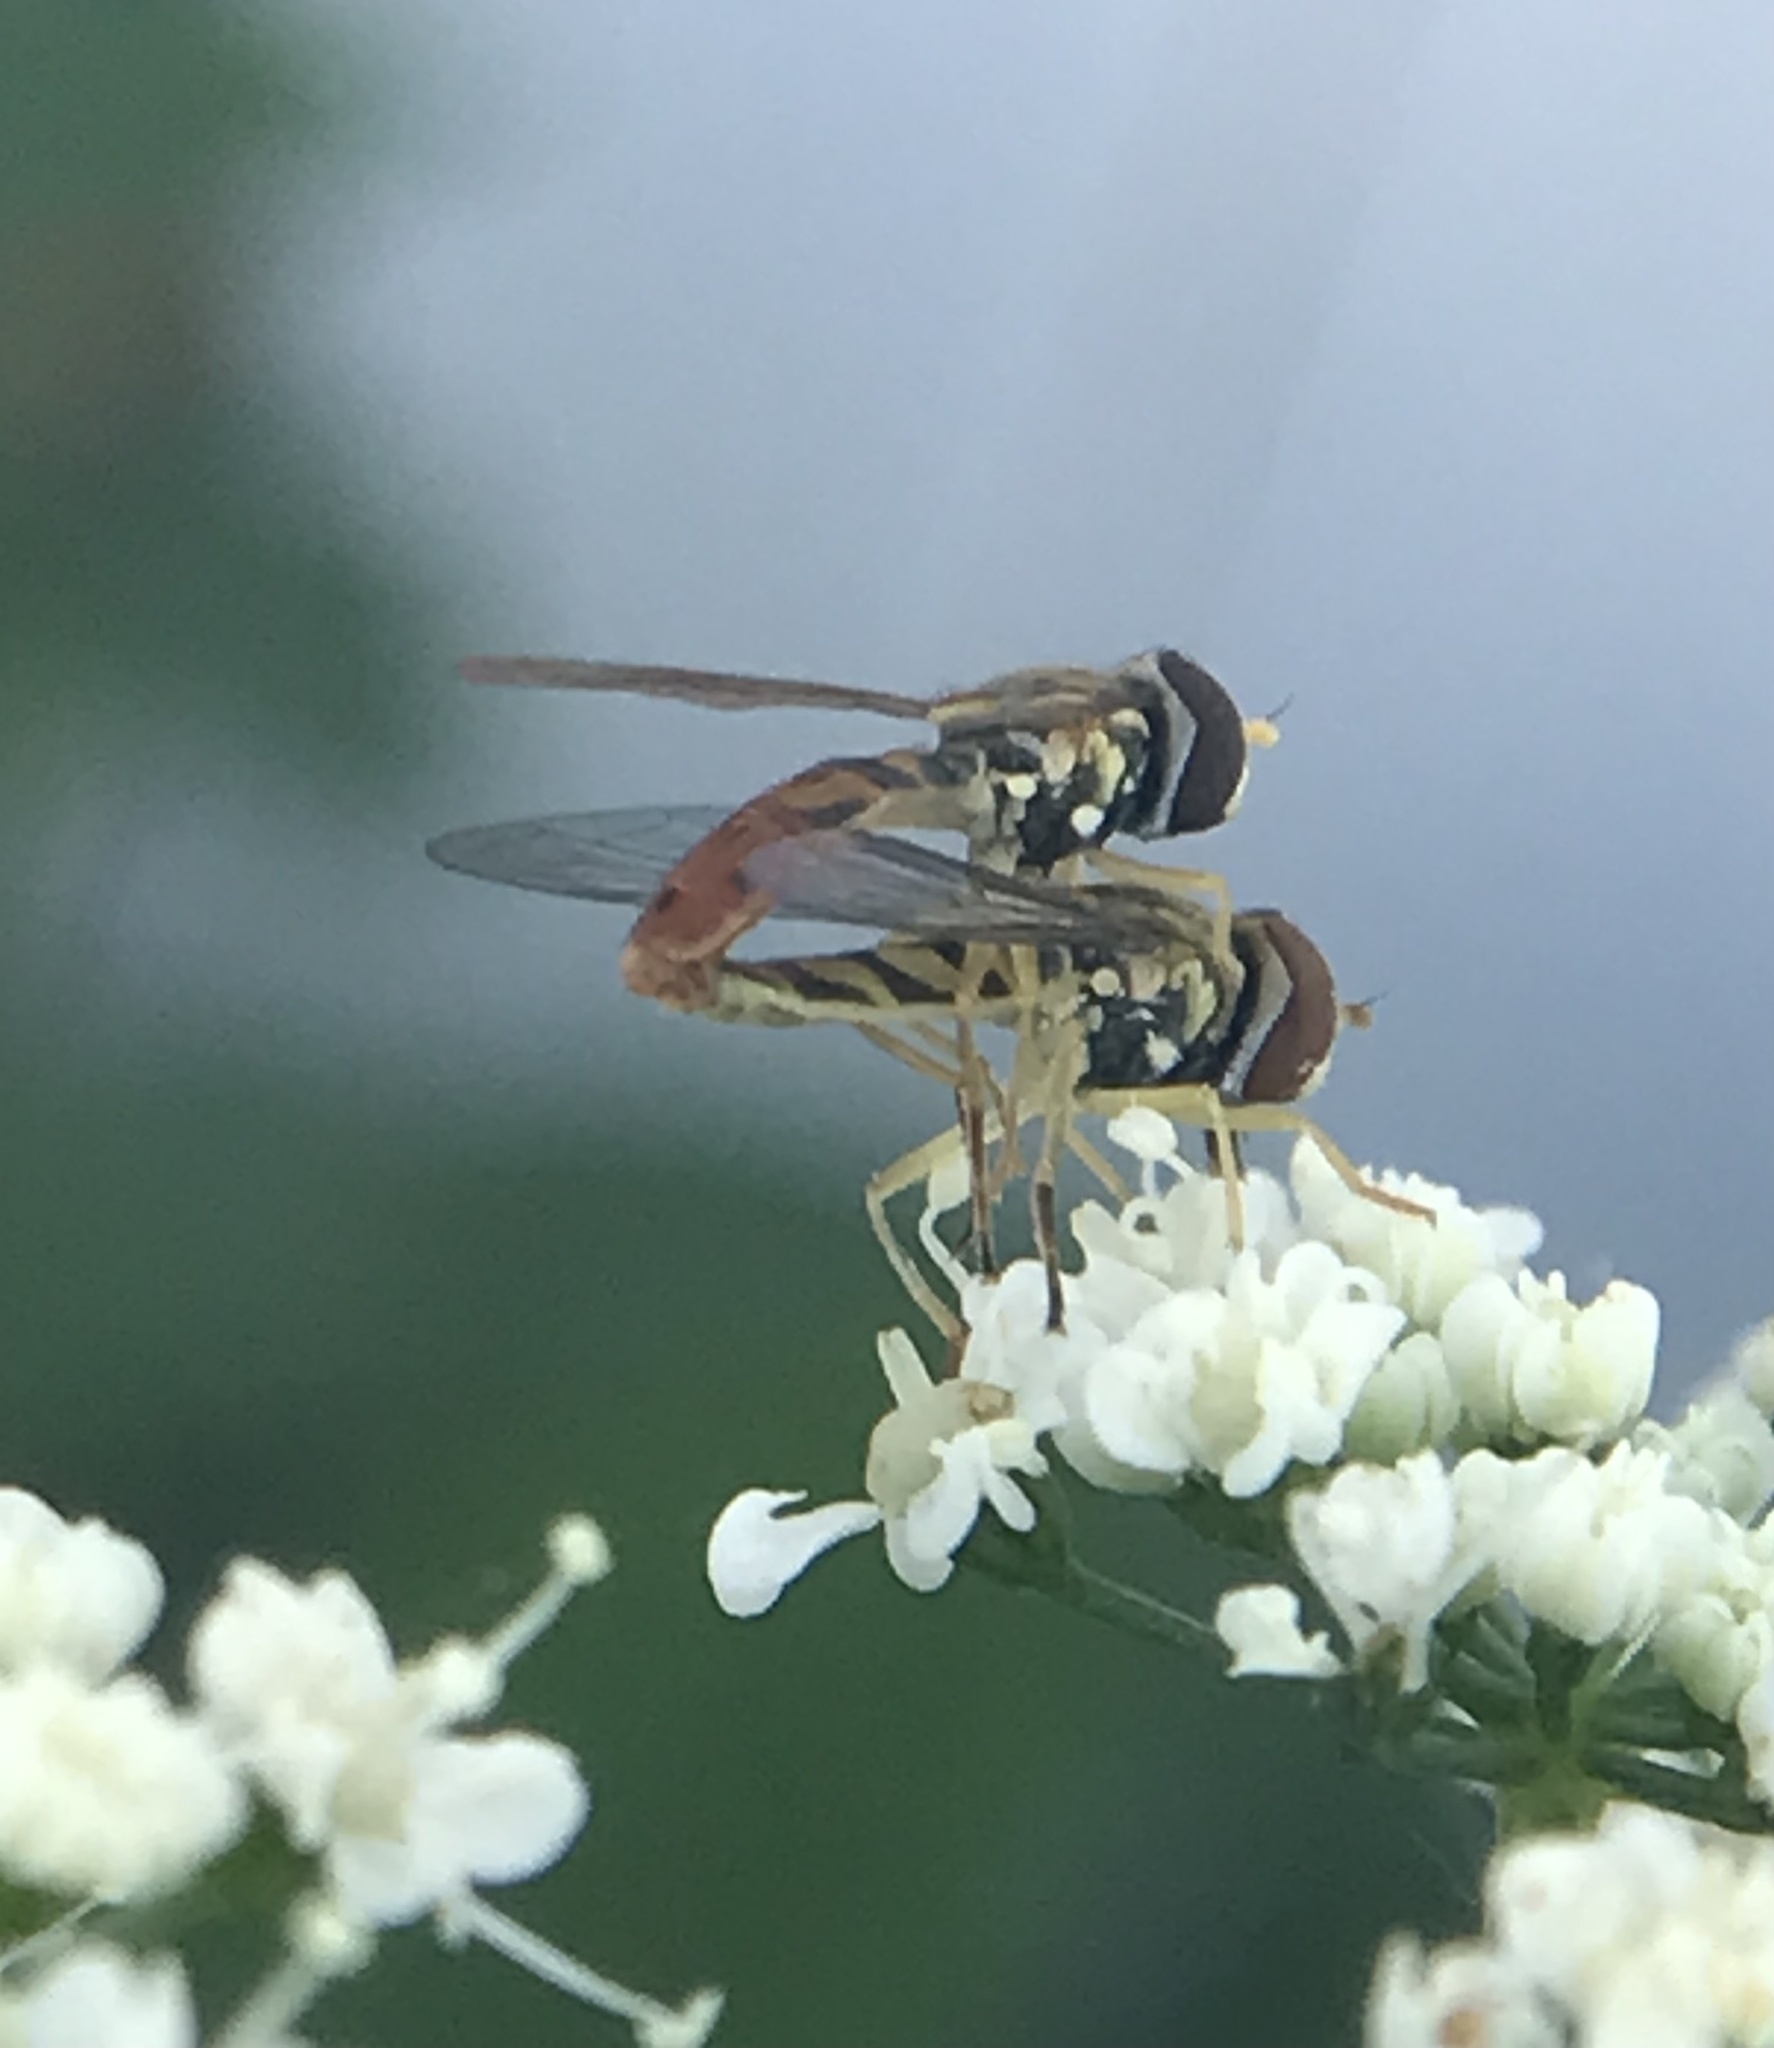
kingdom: Animalia
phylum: Arthropoda
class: Insecta
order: Diptera
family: Syrphidae
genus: Toxomerus
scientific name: Toxomerus marginatus
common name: Syrphid fly
